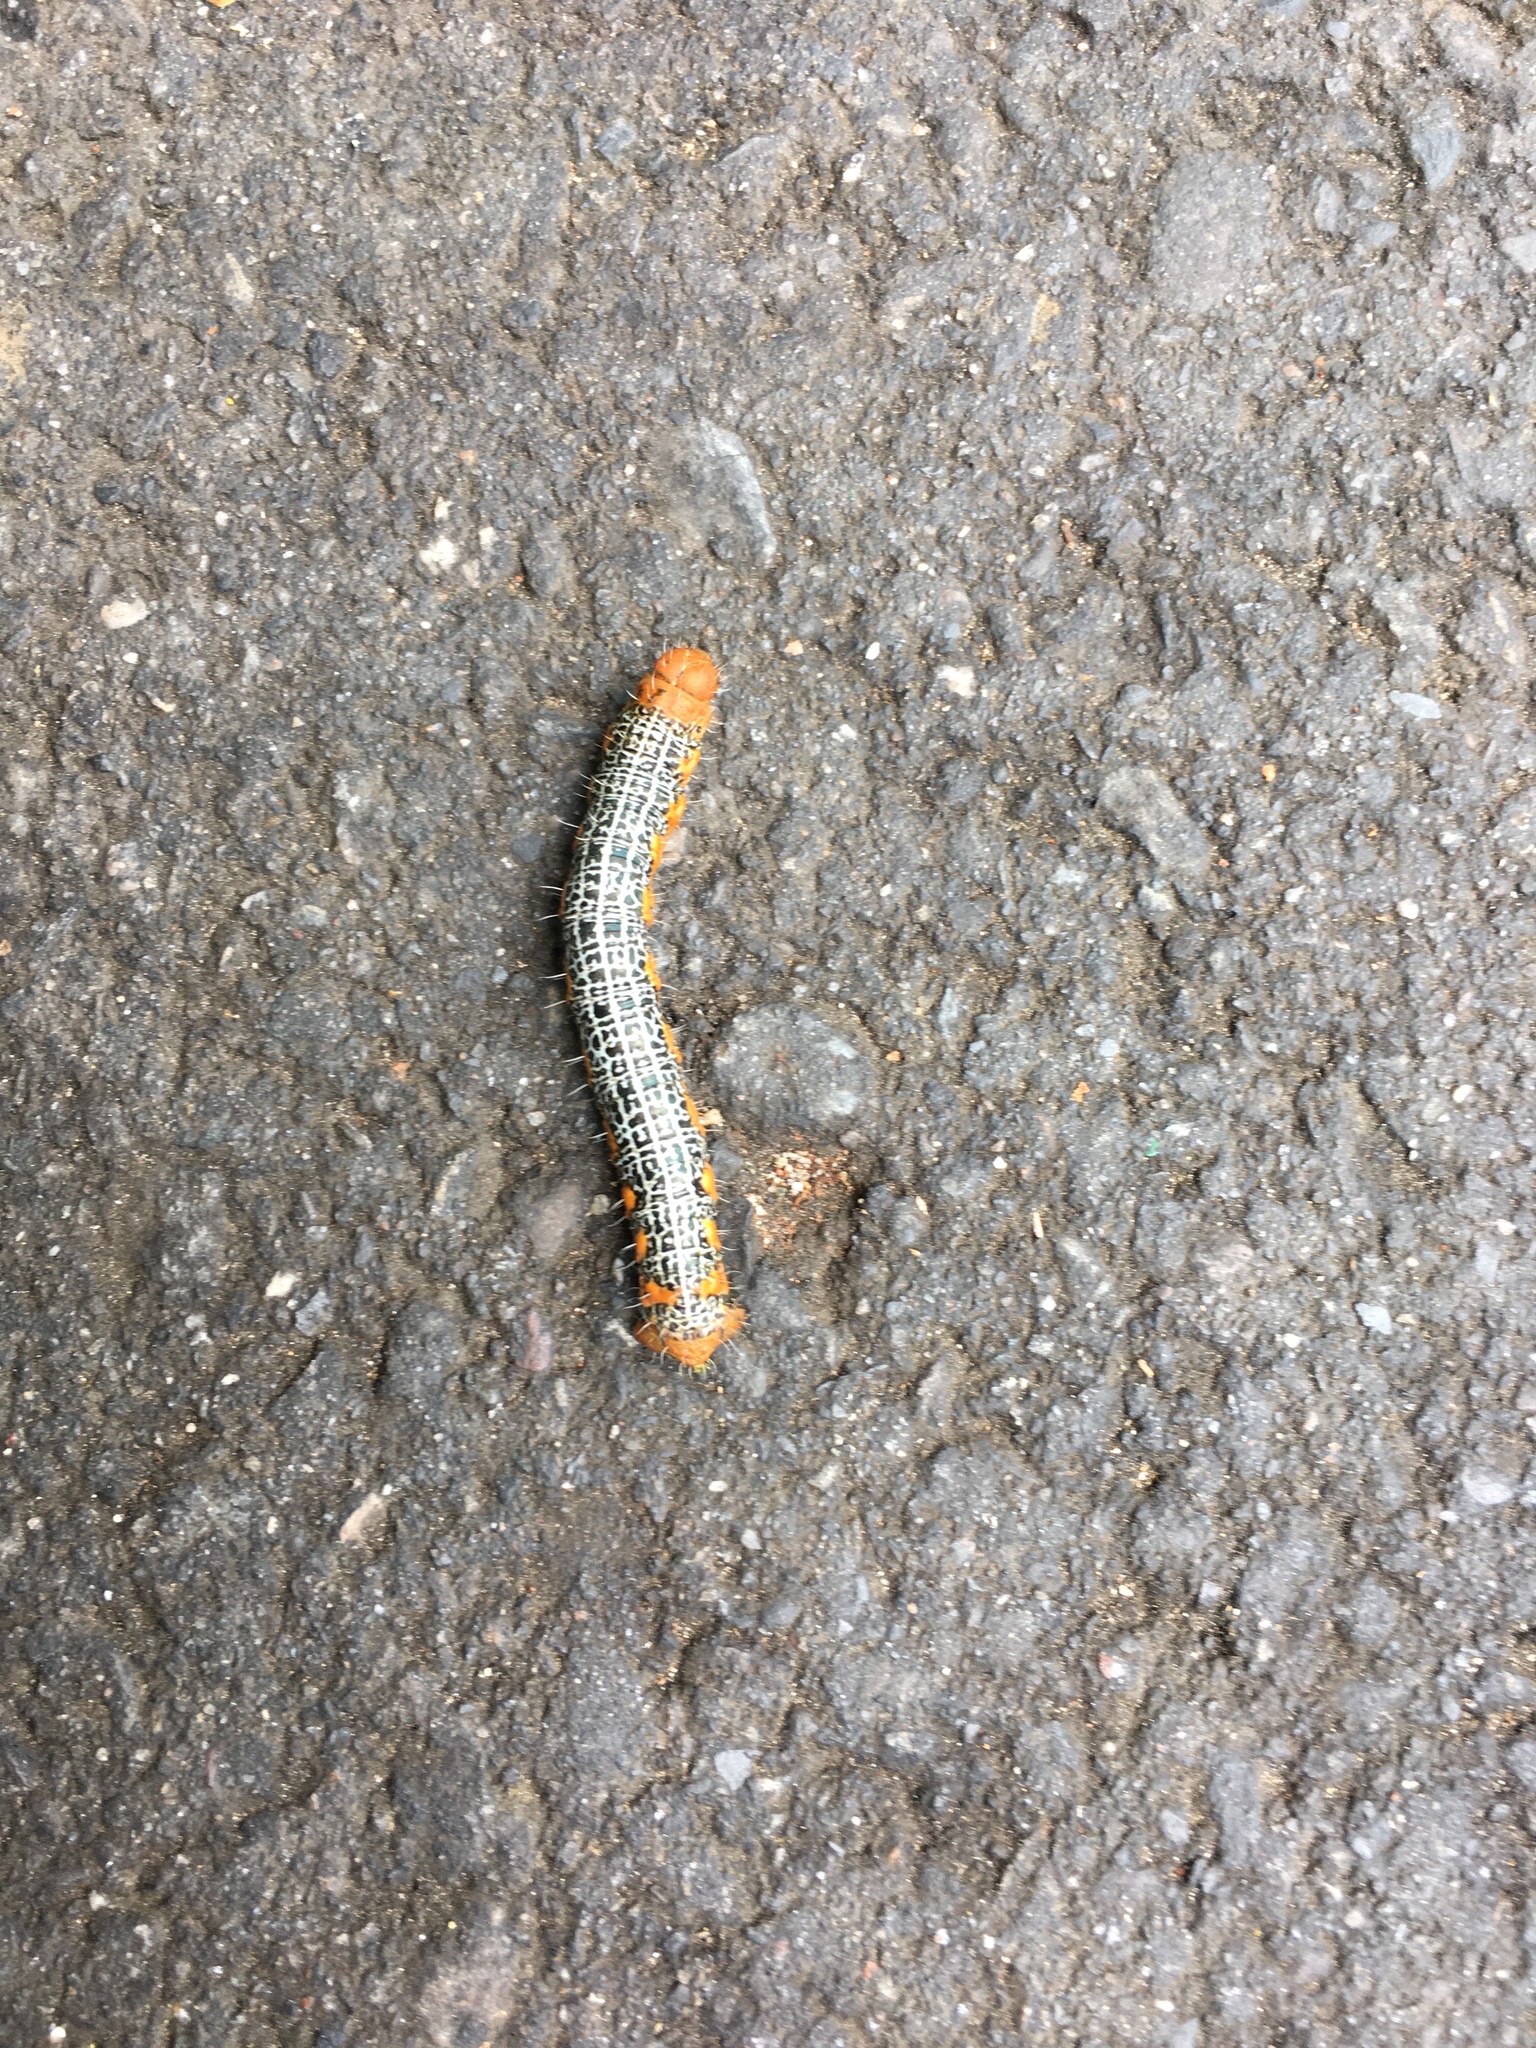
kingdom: Animalia
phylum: Arthropoda
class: Insecta
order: Lepidoptera
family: Geometridae
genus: Milionia
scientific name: Milionia basalis
